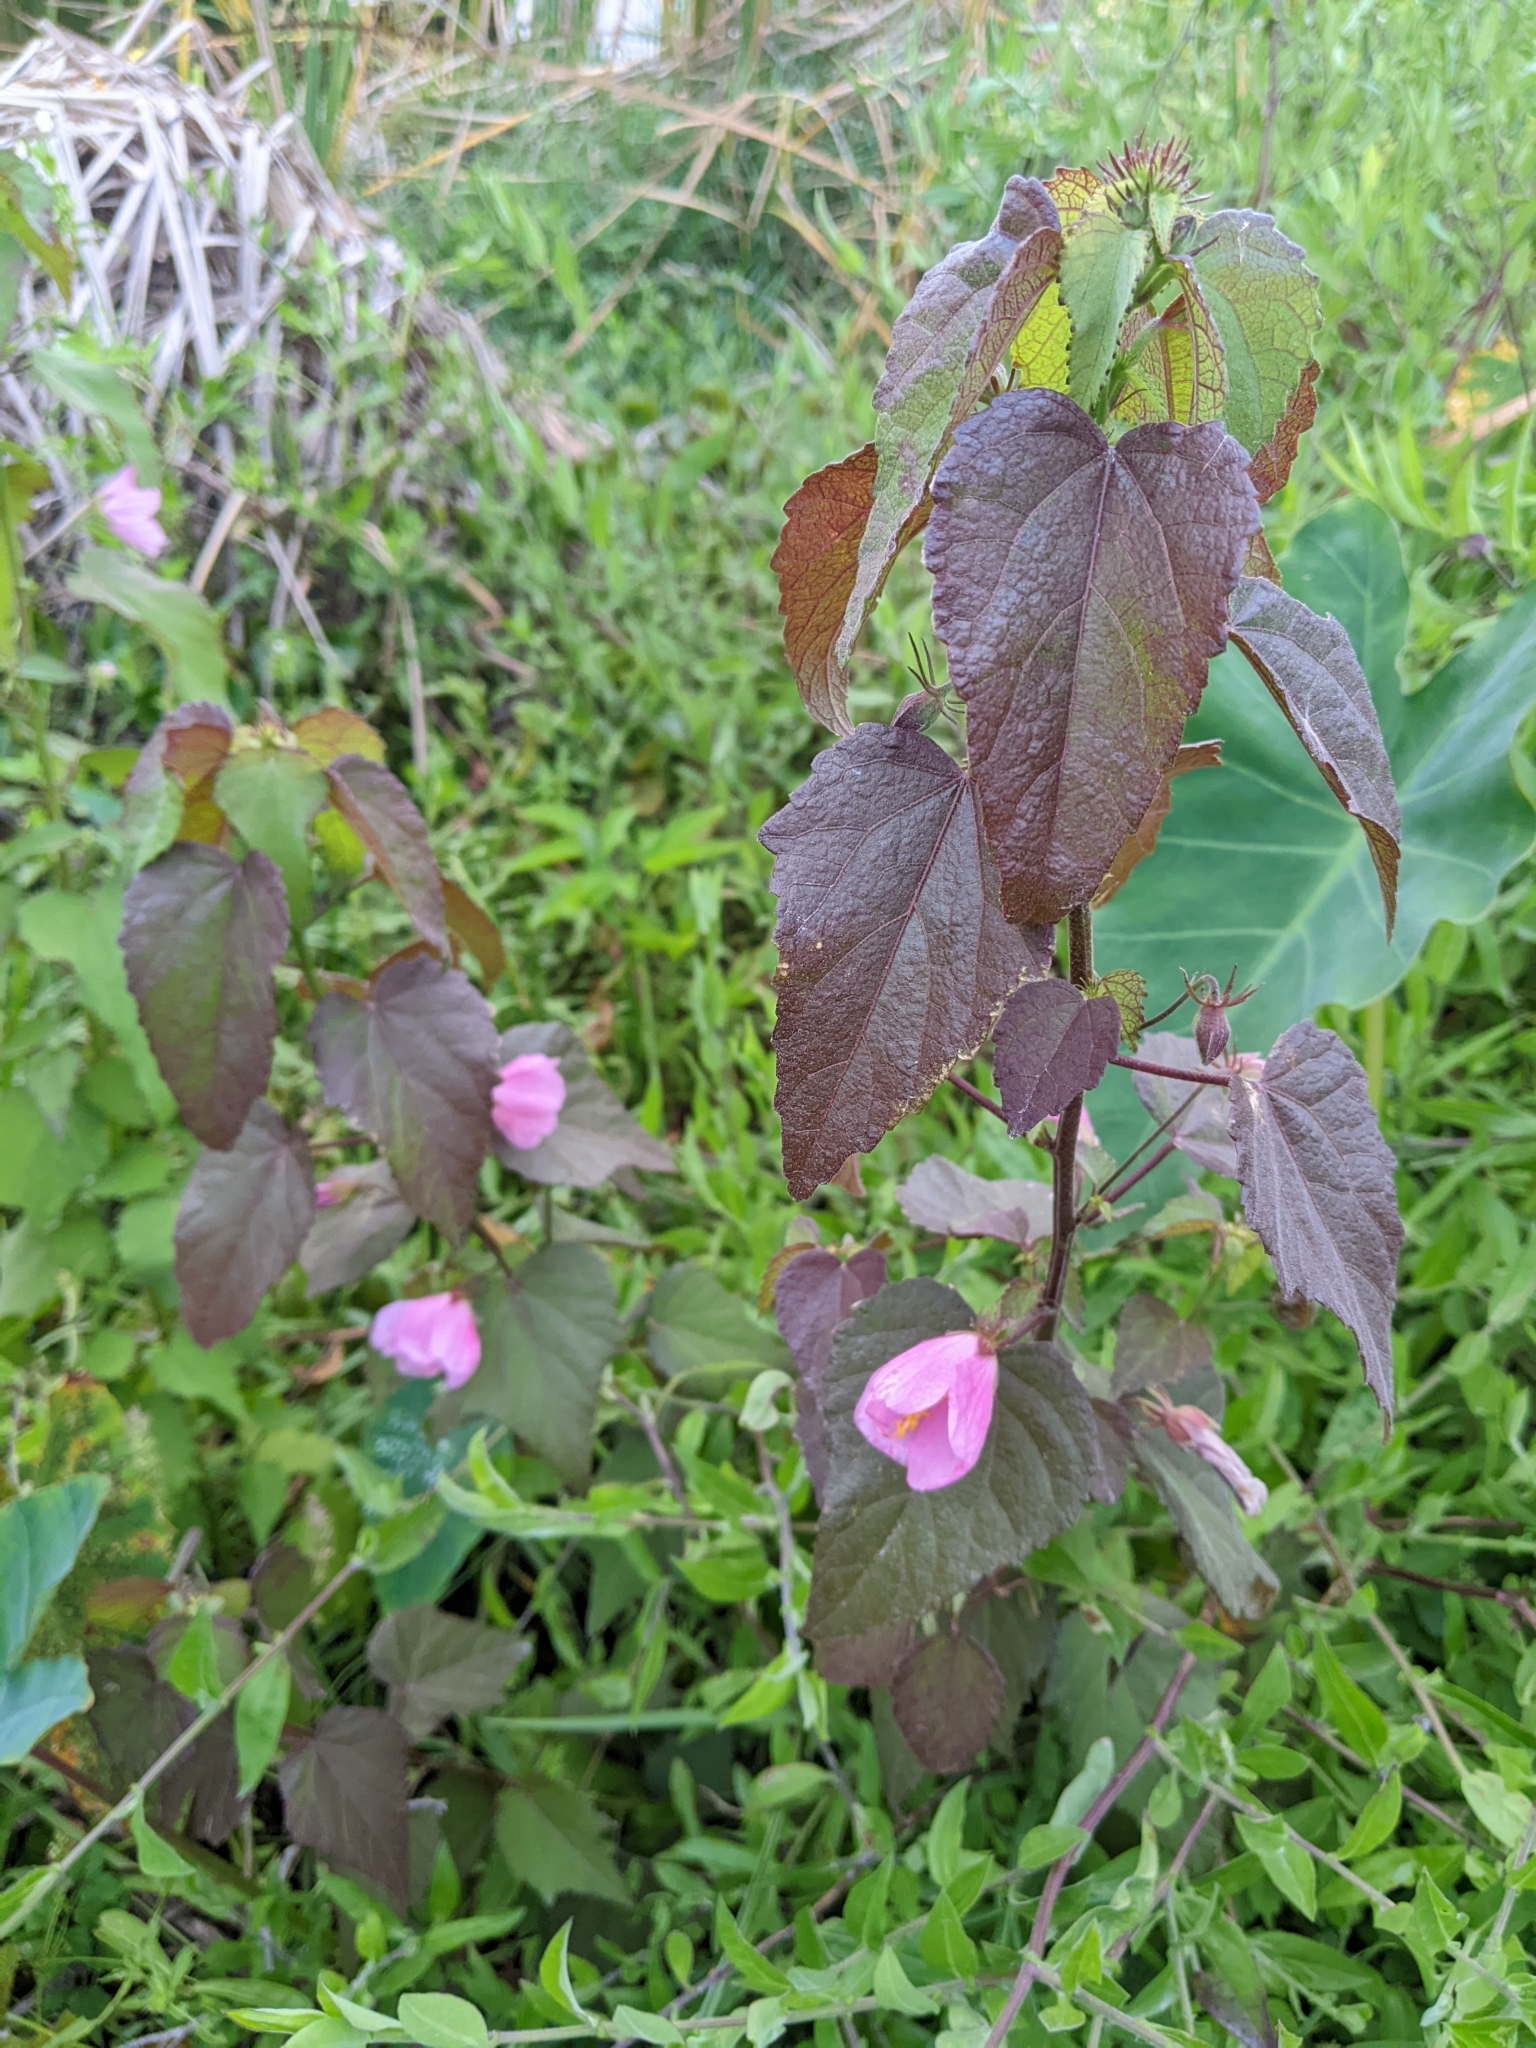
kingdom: Plantae
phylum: Tracheophyta
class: Magnoliopsida
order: Malvales
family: Malvaceae
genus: Kosteletzkya
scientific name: Kosteletzkya pentacarpos
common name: Virginia saltmarsh mallow
